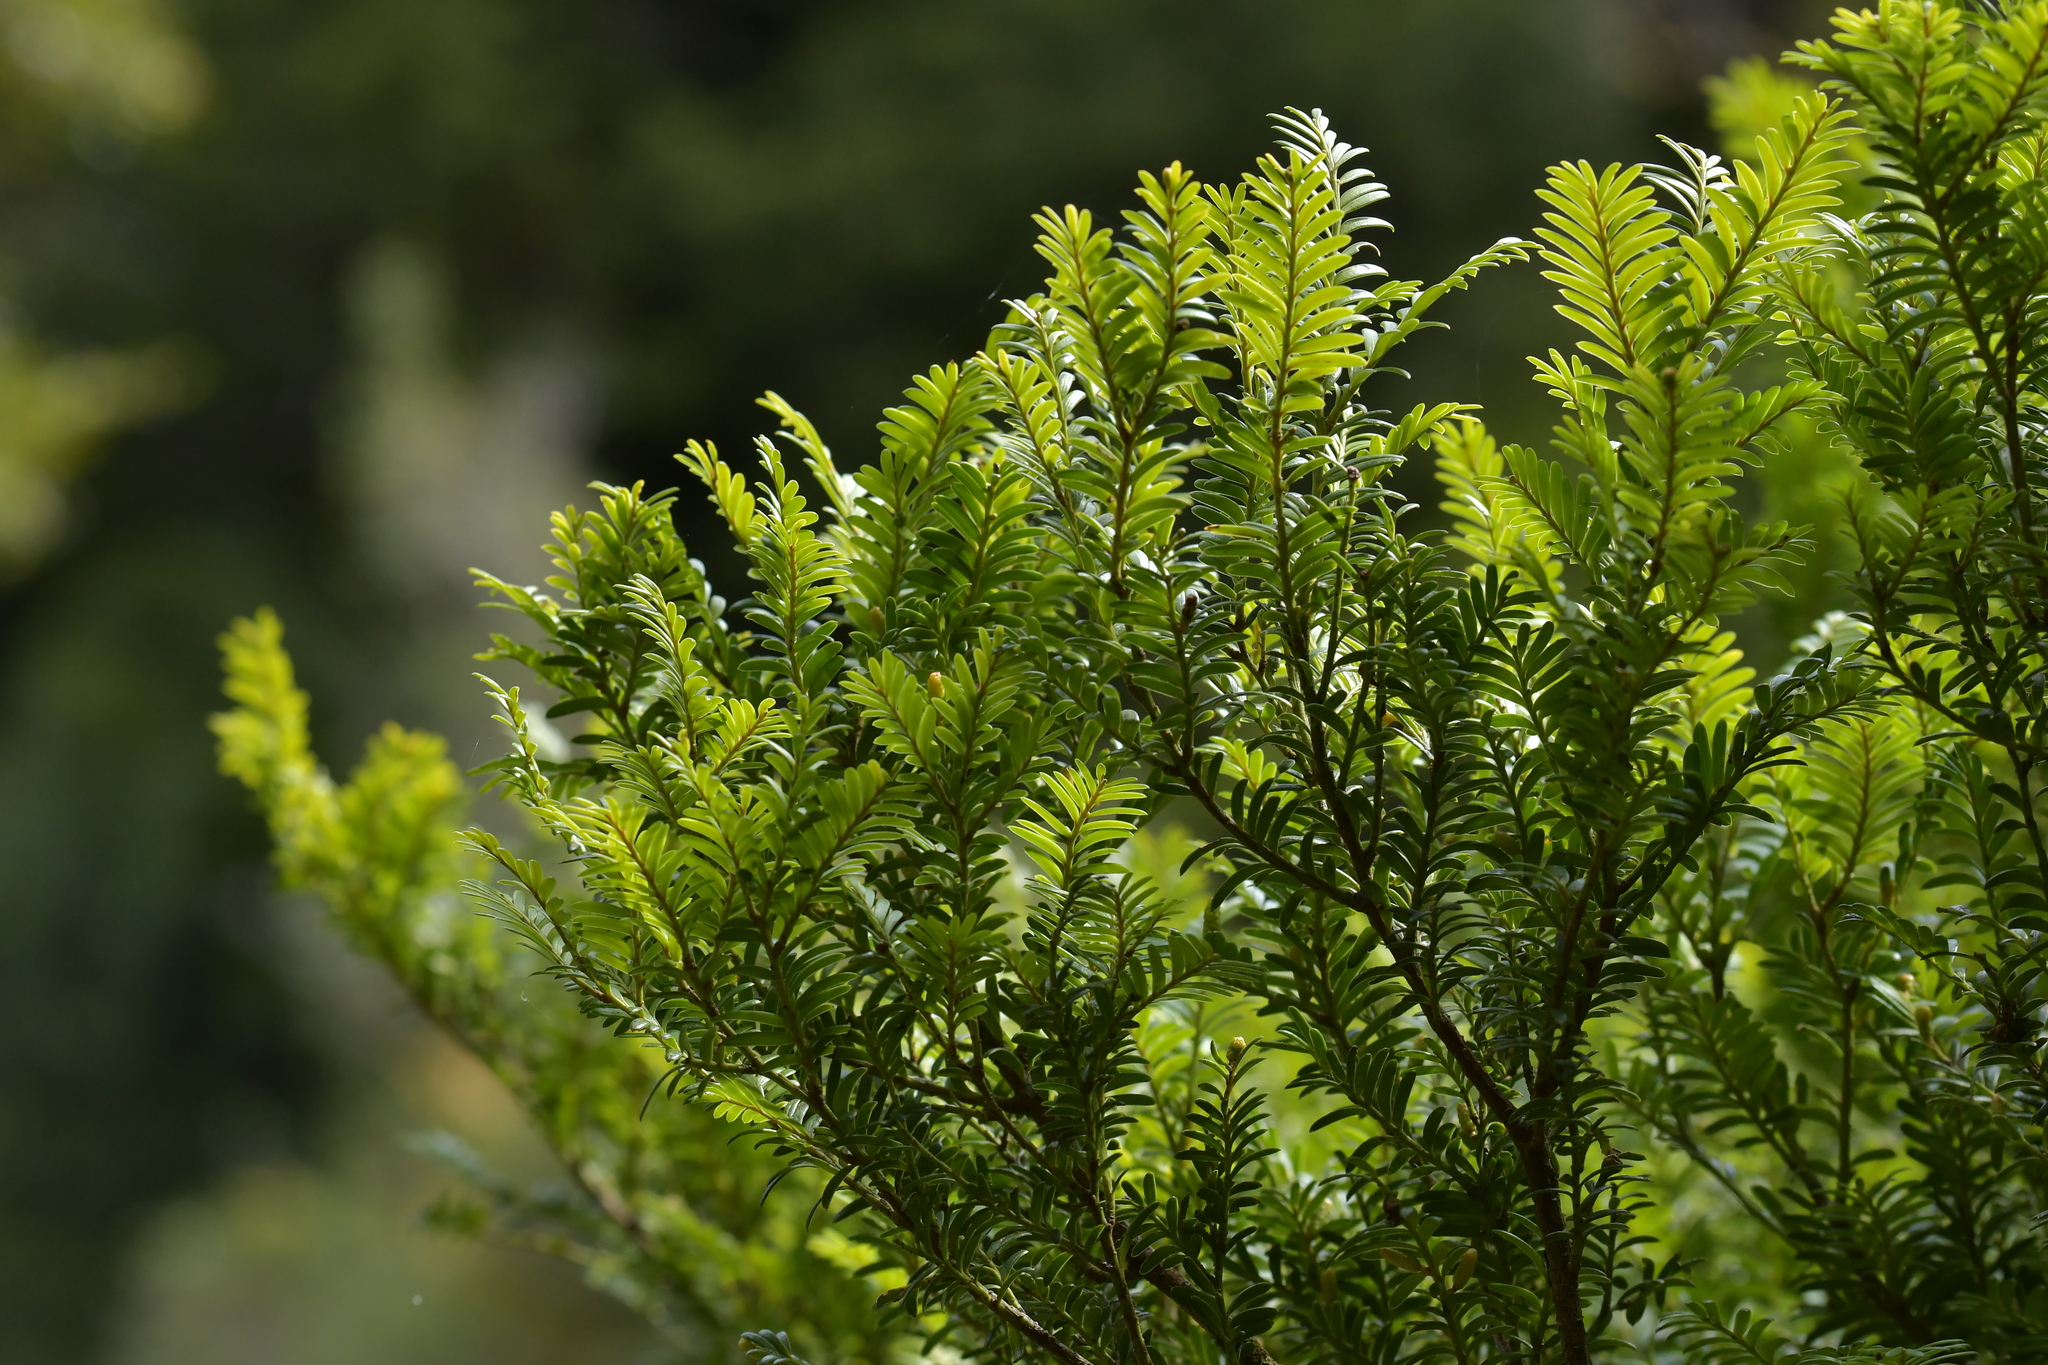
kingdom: Plantae
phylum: Tracheophyta
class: Pinopsida
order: Pinales
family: Podocarpaceae
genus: Prumnopitys
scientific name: Prumnopitys ferruginea
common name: Brown pine
